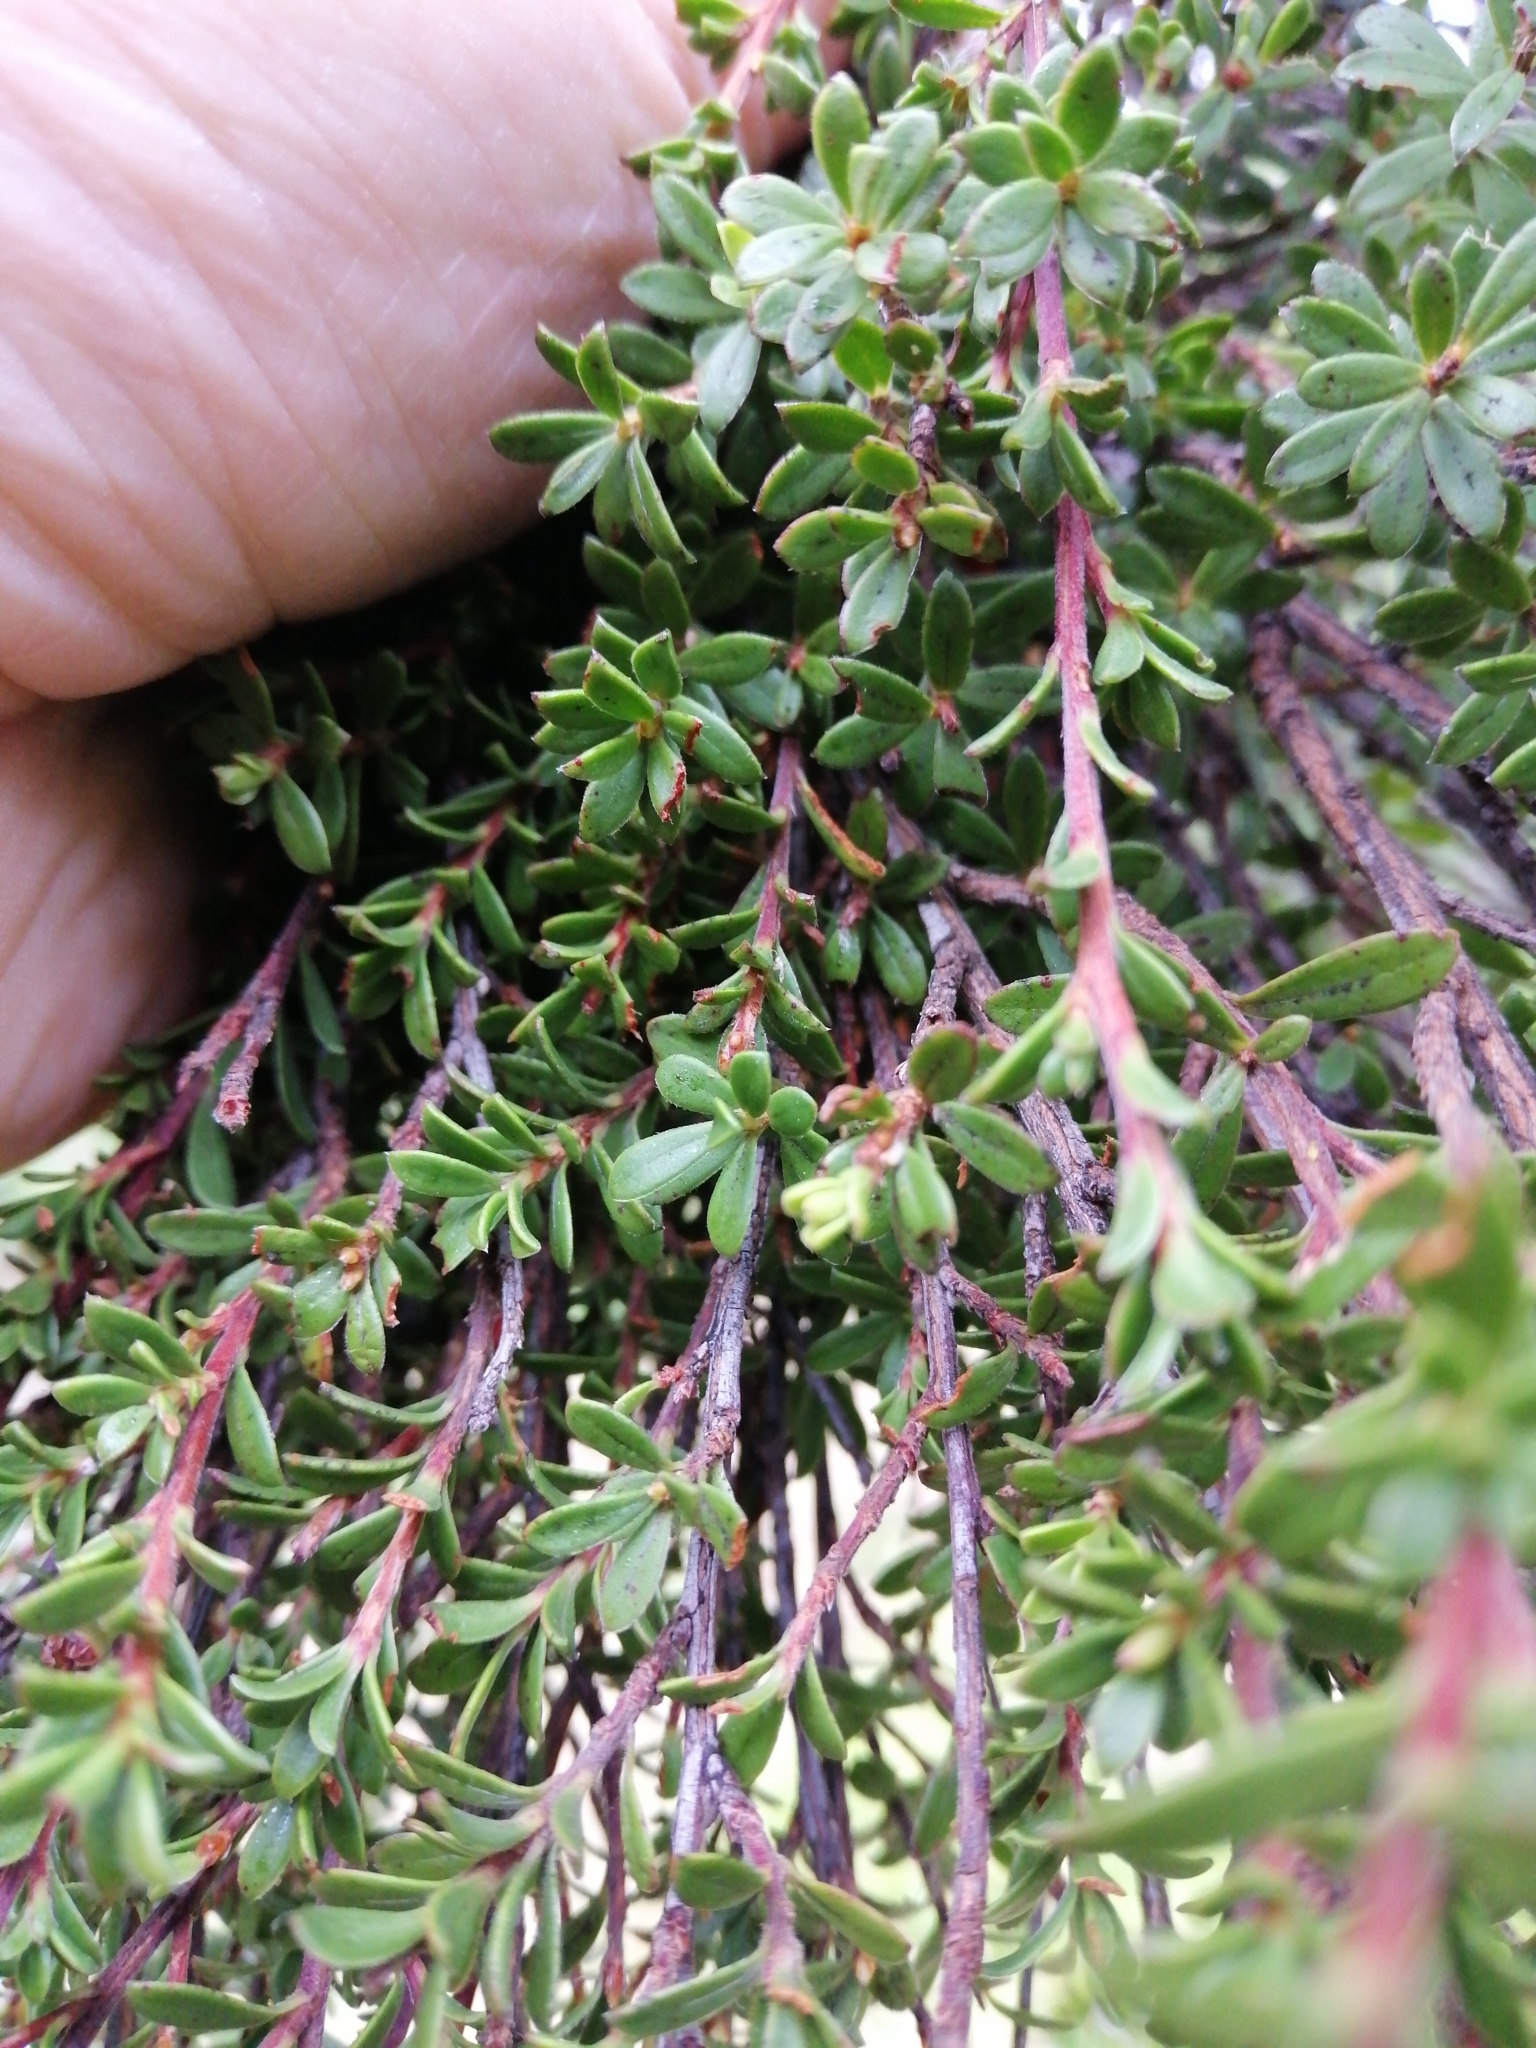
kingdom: Plantae
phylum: Tracheophyta
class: Magnoliopsida
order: Myrtales
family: Myrtaceae
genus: Kunzea
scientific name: Kunzea amathicola
